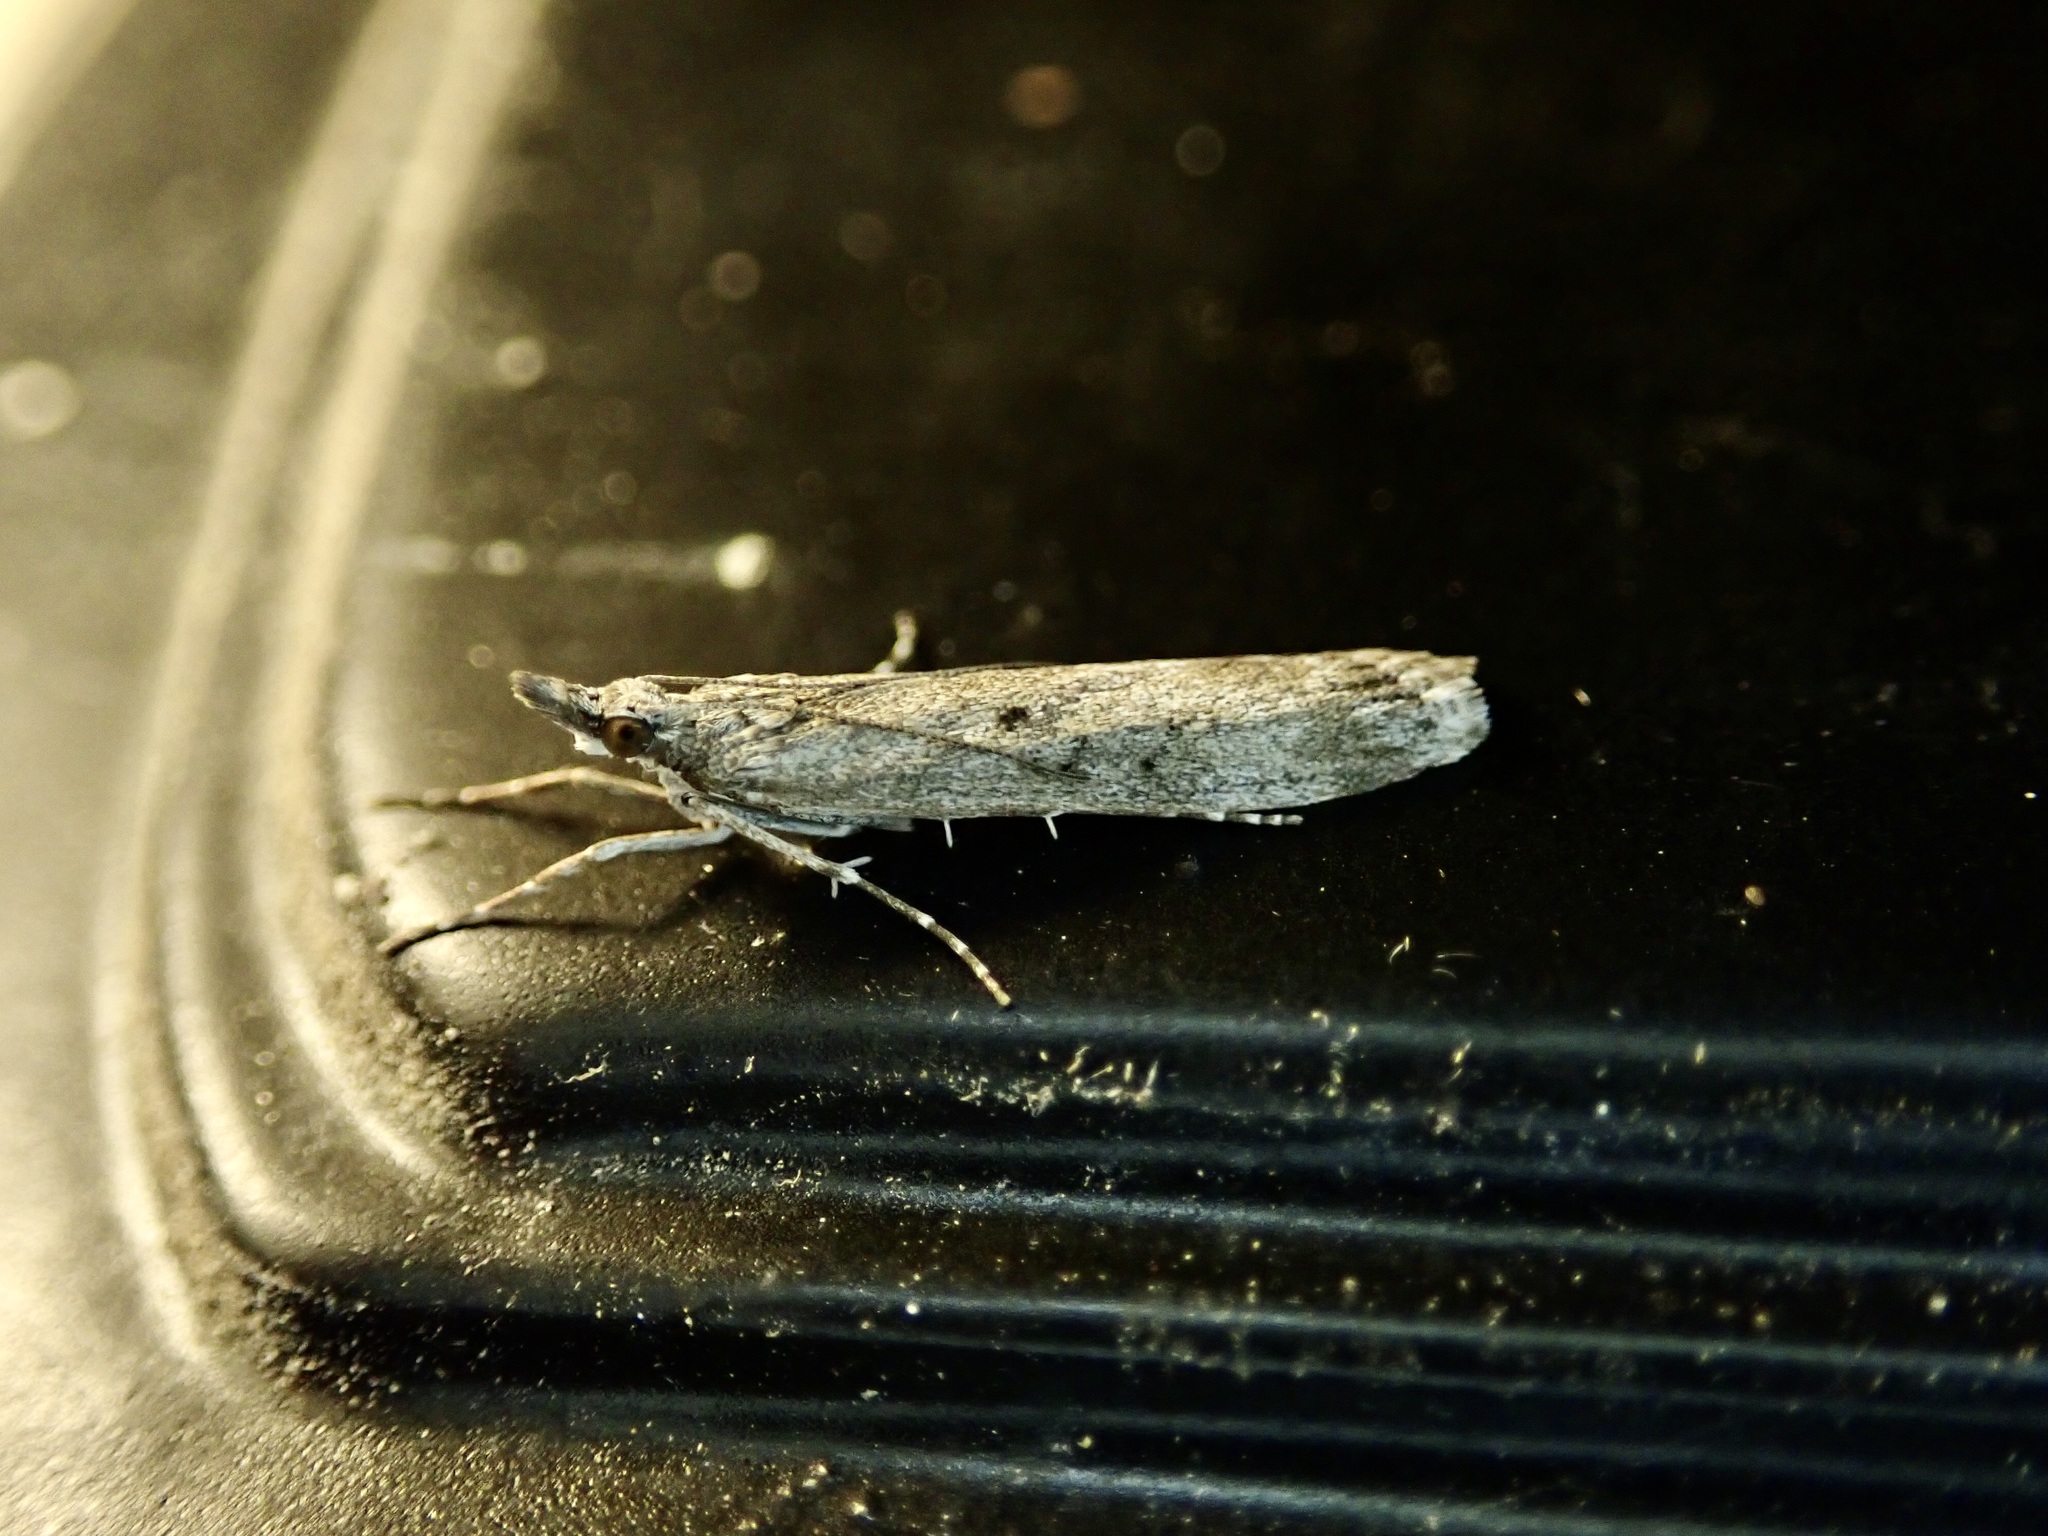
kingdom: Animalia
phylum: Arthropoda
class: Insecta
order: Lepidoptera
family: Crambidae
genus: Eudonia
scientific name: Eudonia leptalea
